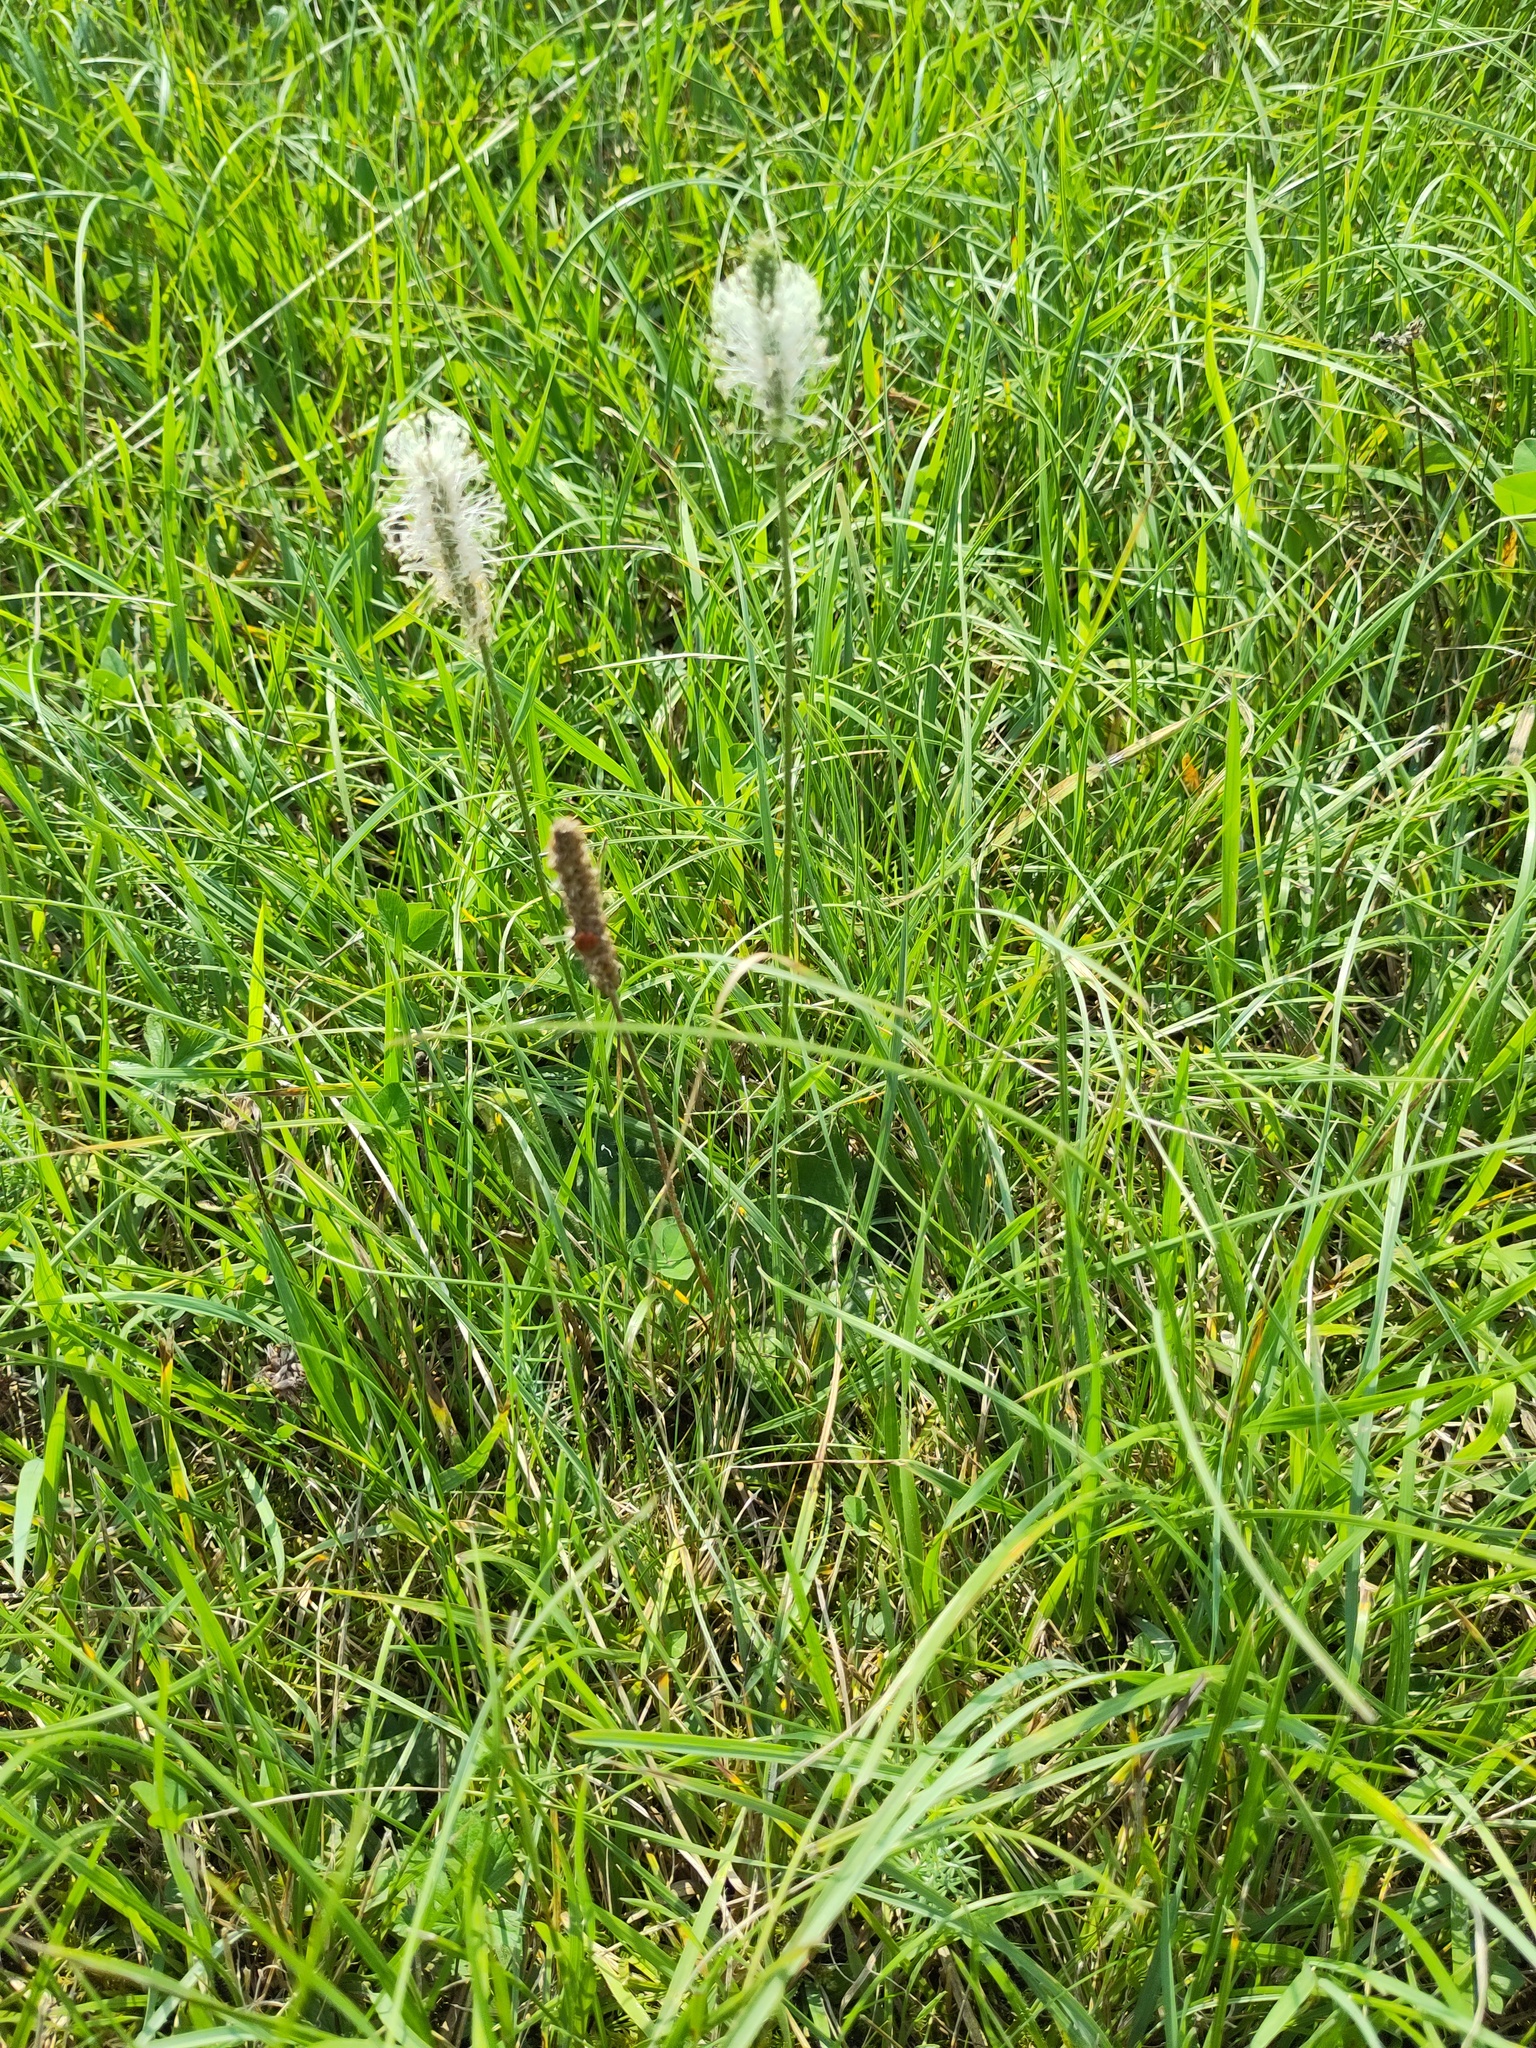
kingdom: Plantae
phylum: Tracheophyta
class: Magnoliopsida
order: Lamiales
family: Plantaginaceae
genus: Plantago
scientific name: Plantago media
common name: Hoary plantain
